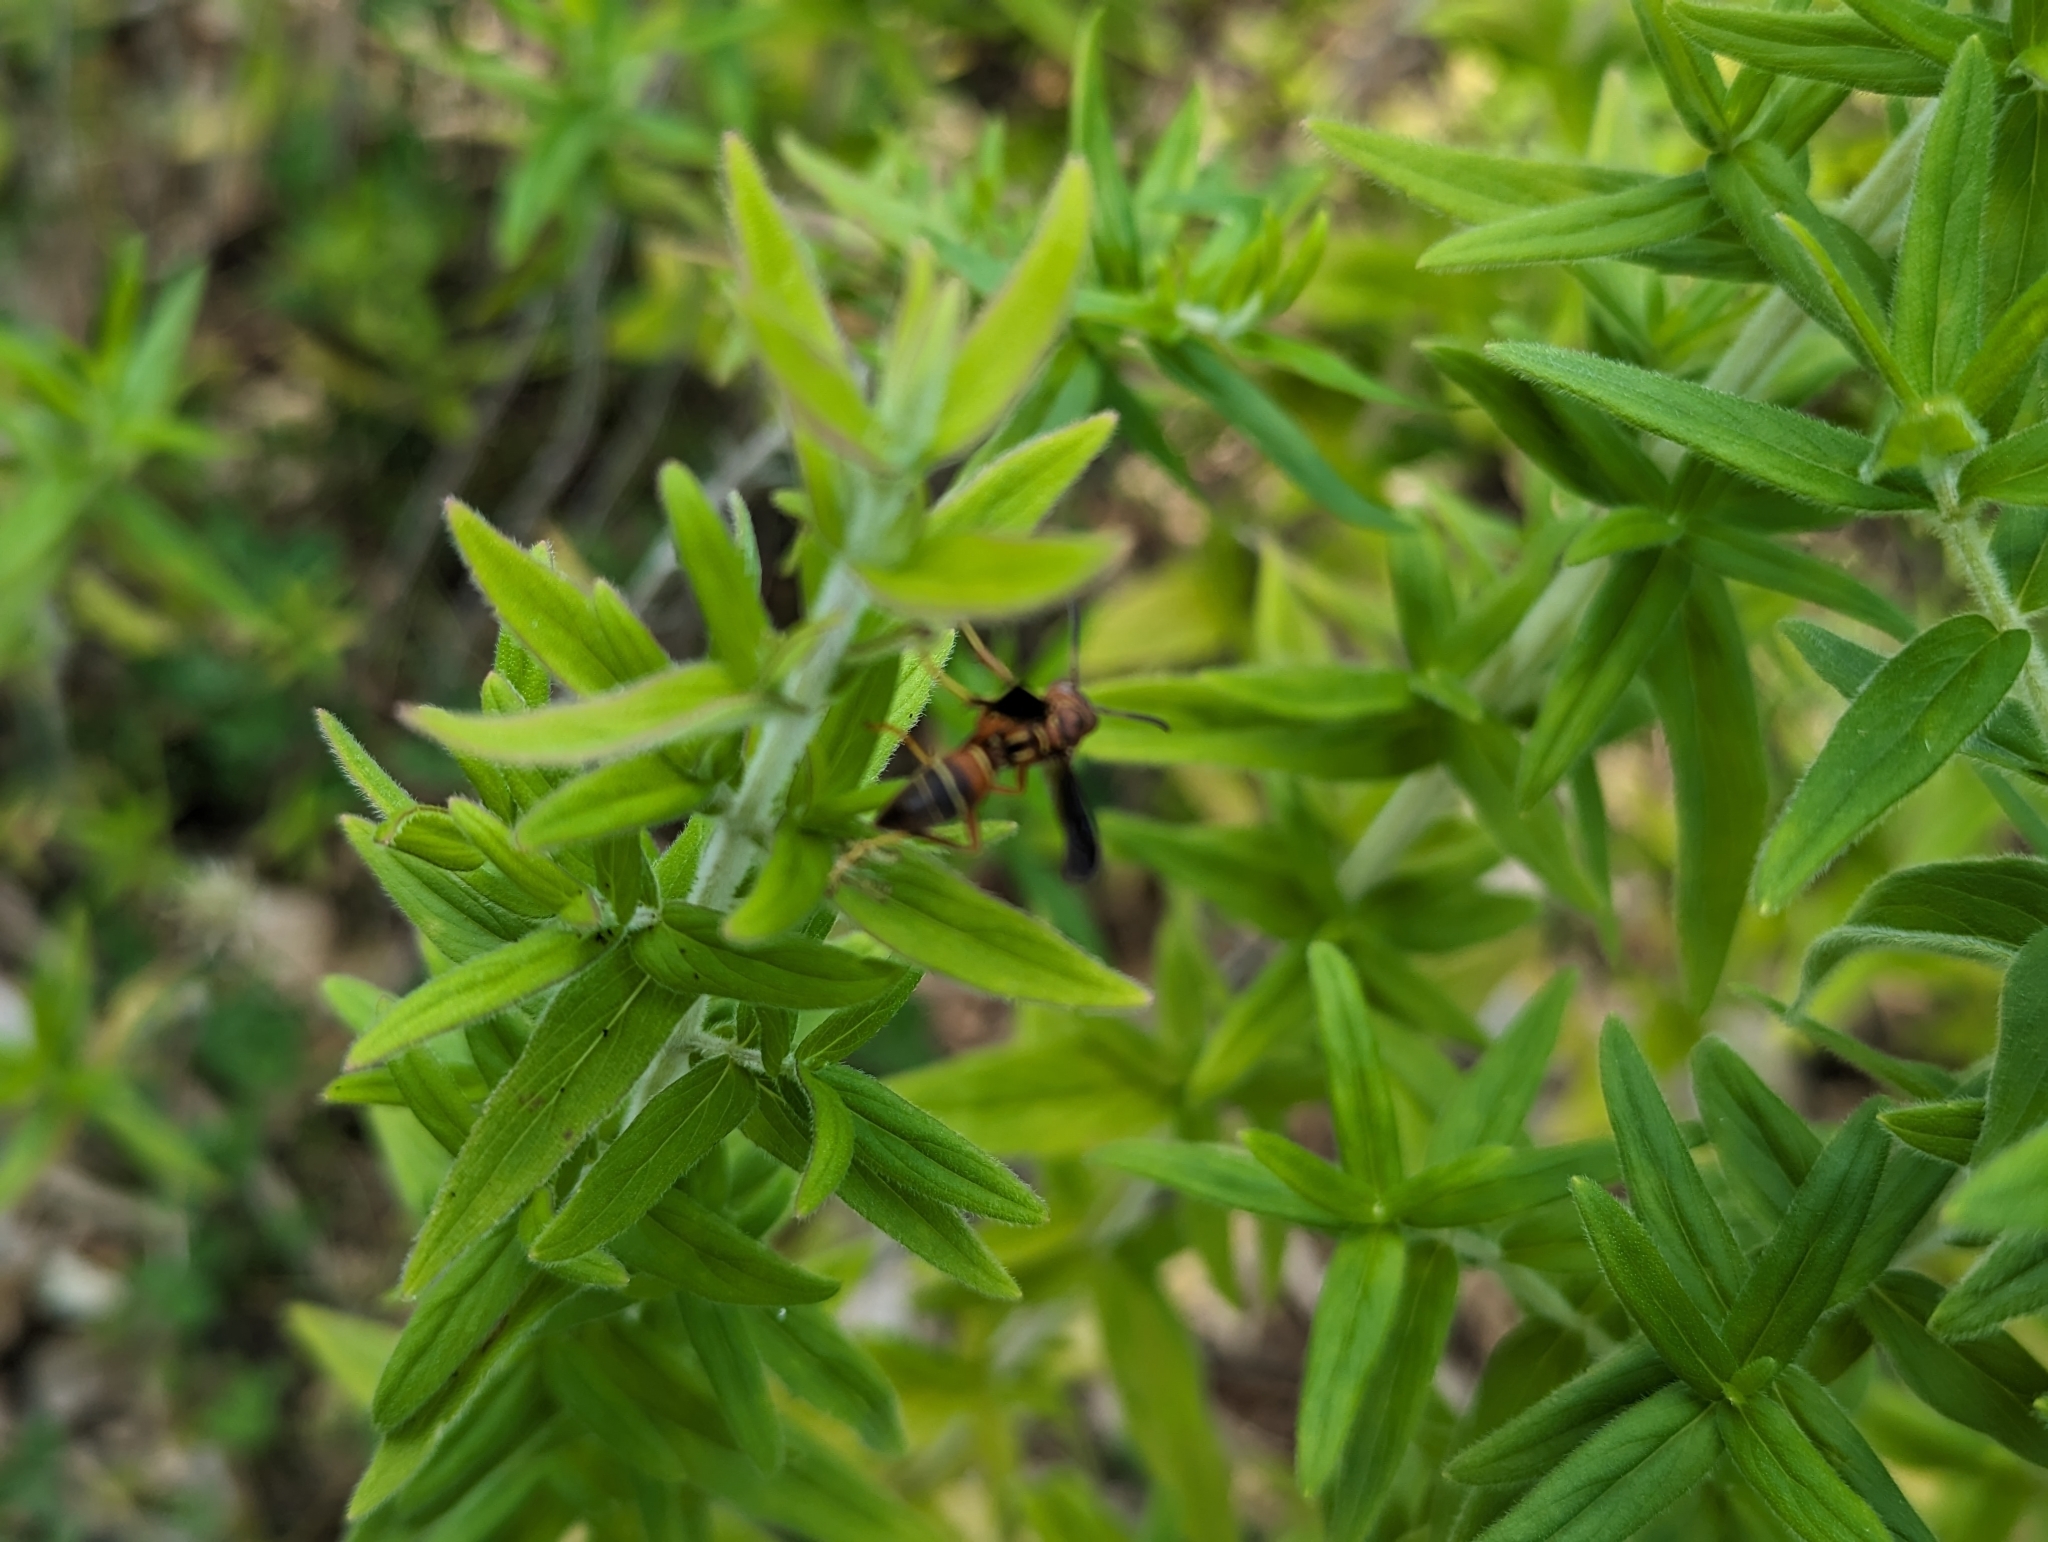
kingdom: Animalia
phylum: Arthropoda
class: Insecta
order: Hymenoptera
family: Eumenidae
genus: Polistes
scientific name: Polistes dorsalis
